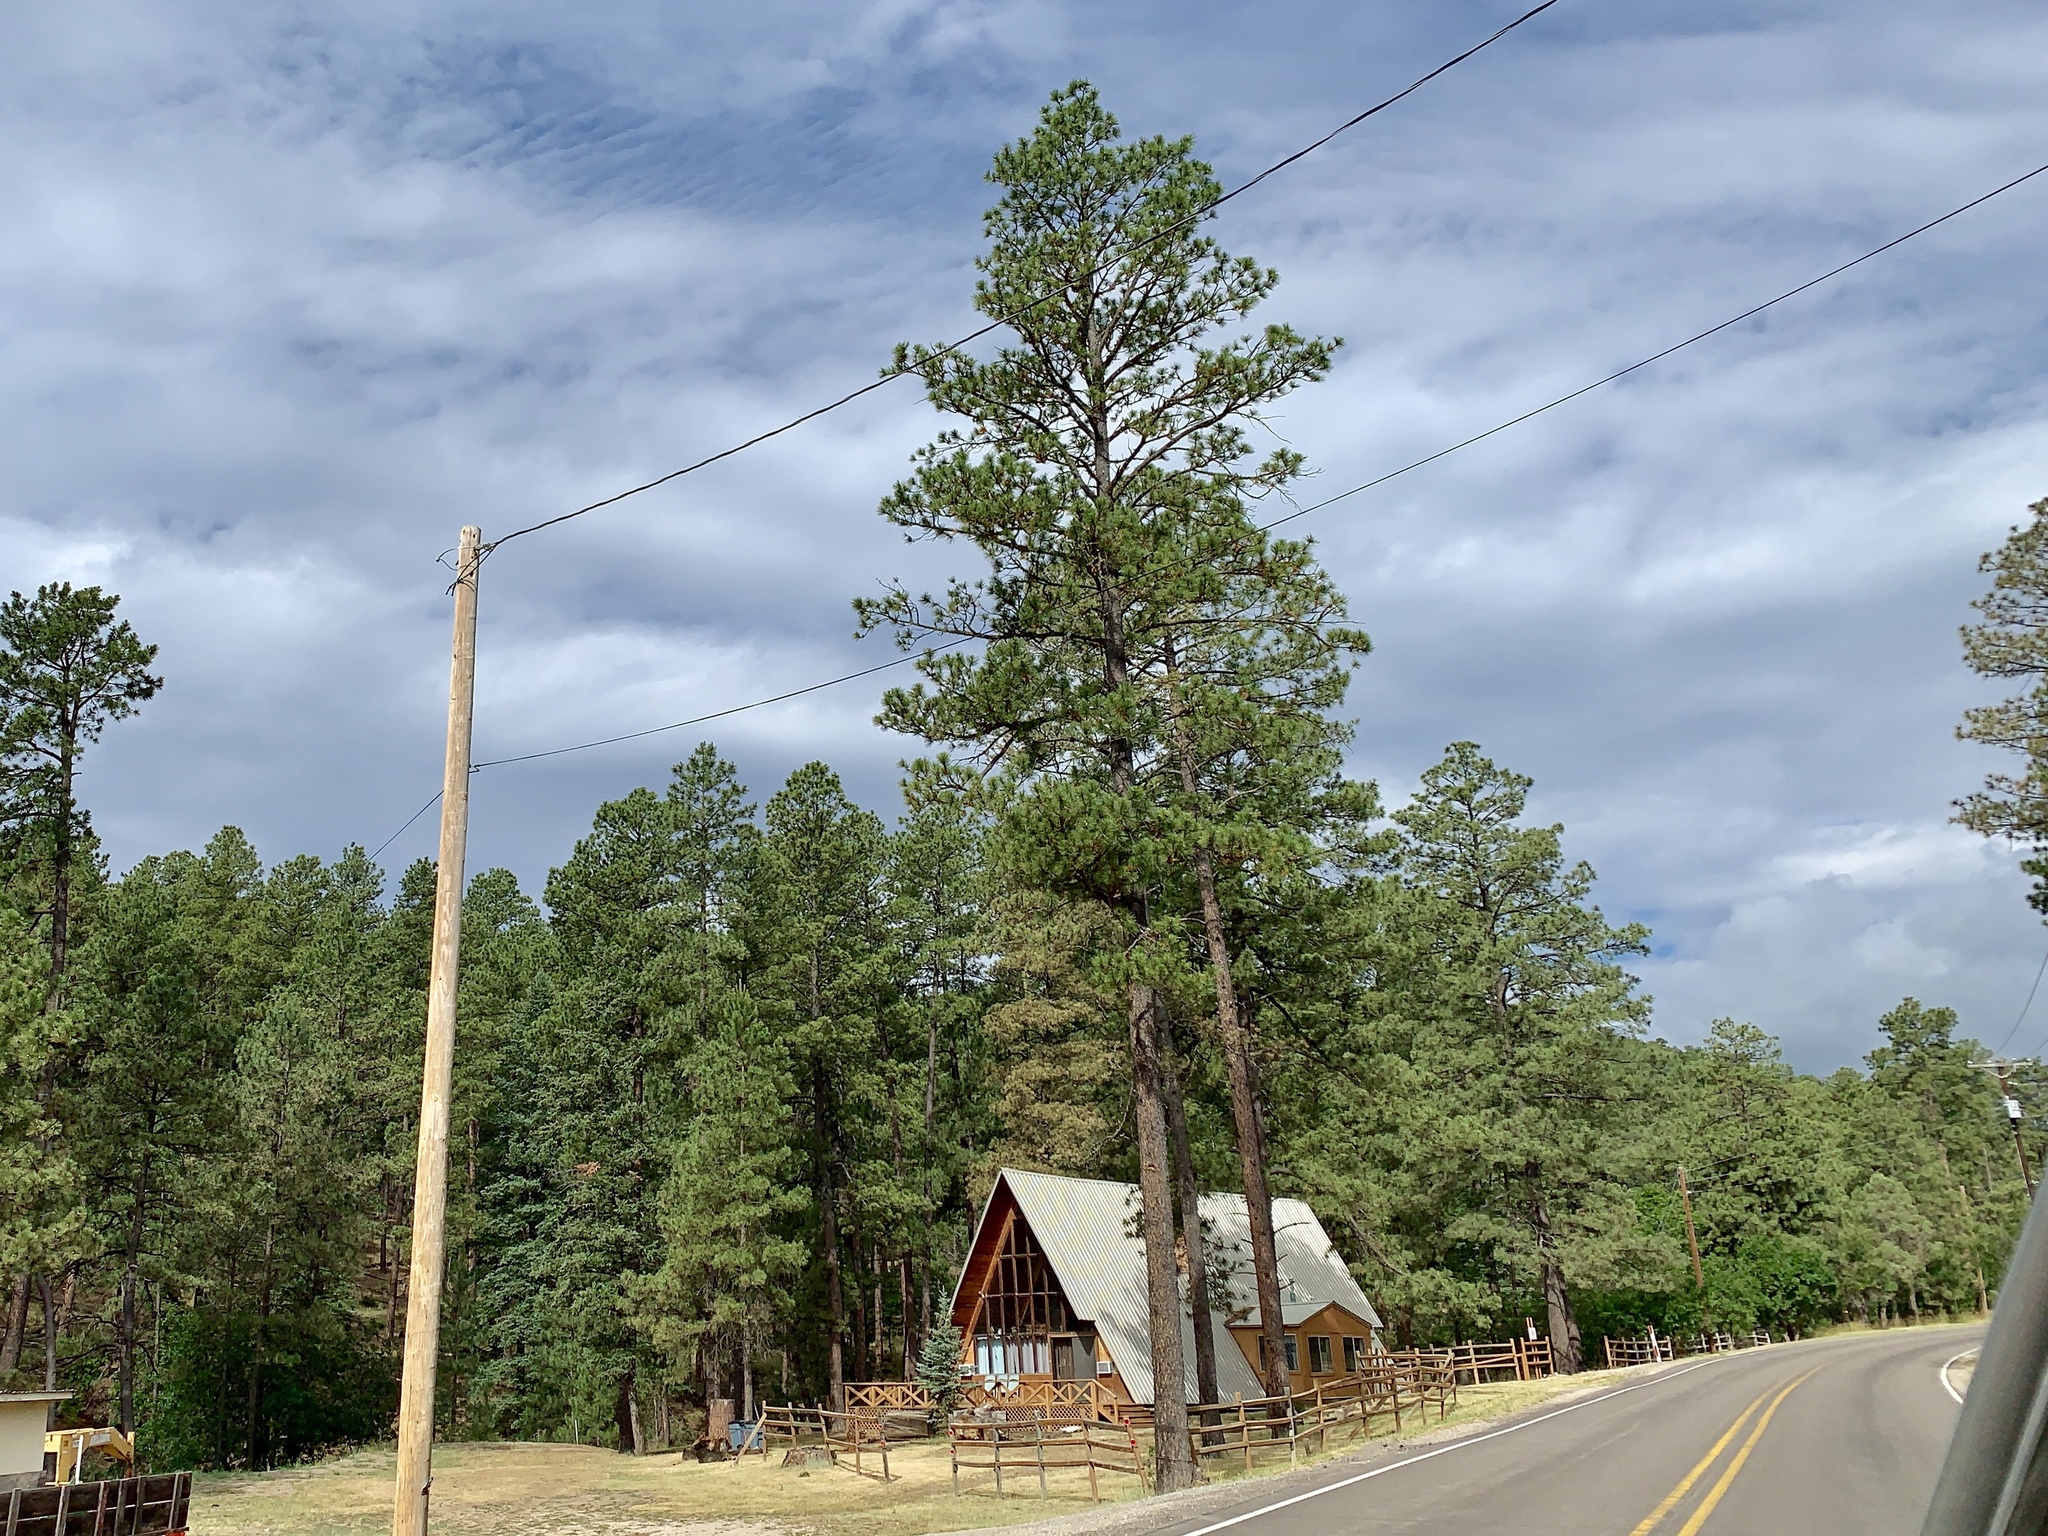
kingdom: Plantae
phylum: Tracheophyta
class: Pinopsida
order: Pinales
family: Pinaceae
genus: Pinus
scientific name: Pinus ponderosa
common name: Western yellow-pine
